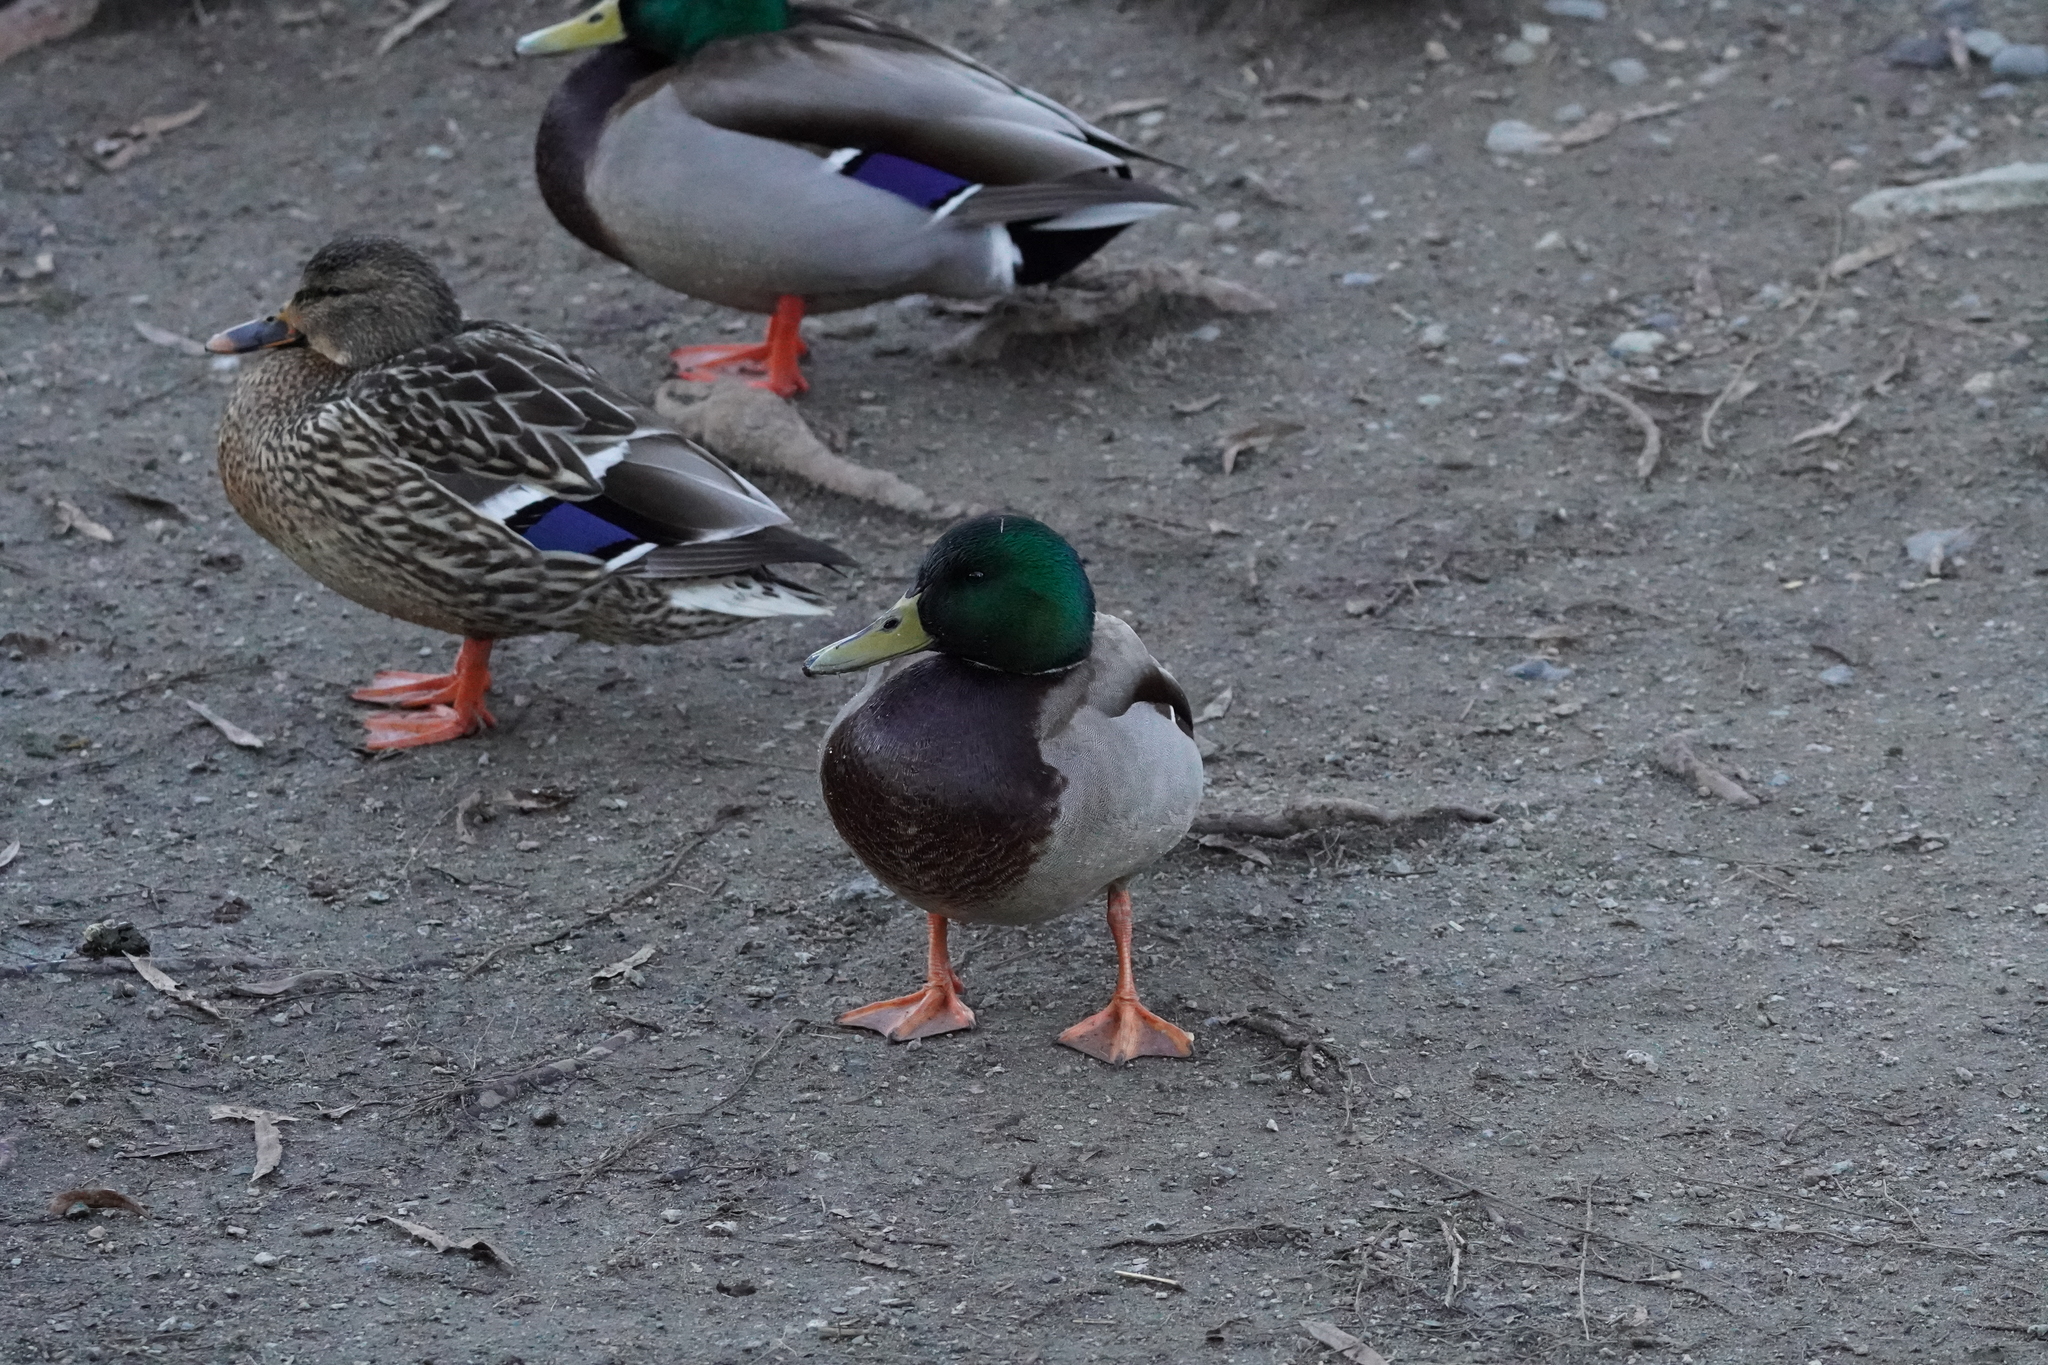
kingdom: Animalia
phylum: Chordata
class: Aves
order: Anseriformes
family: Anatidae
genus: Anas
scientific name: Anas platyrhynchos
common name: Mallard
